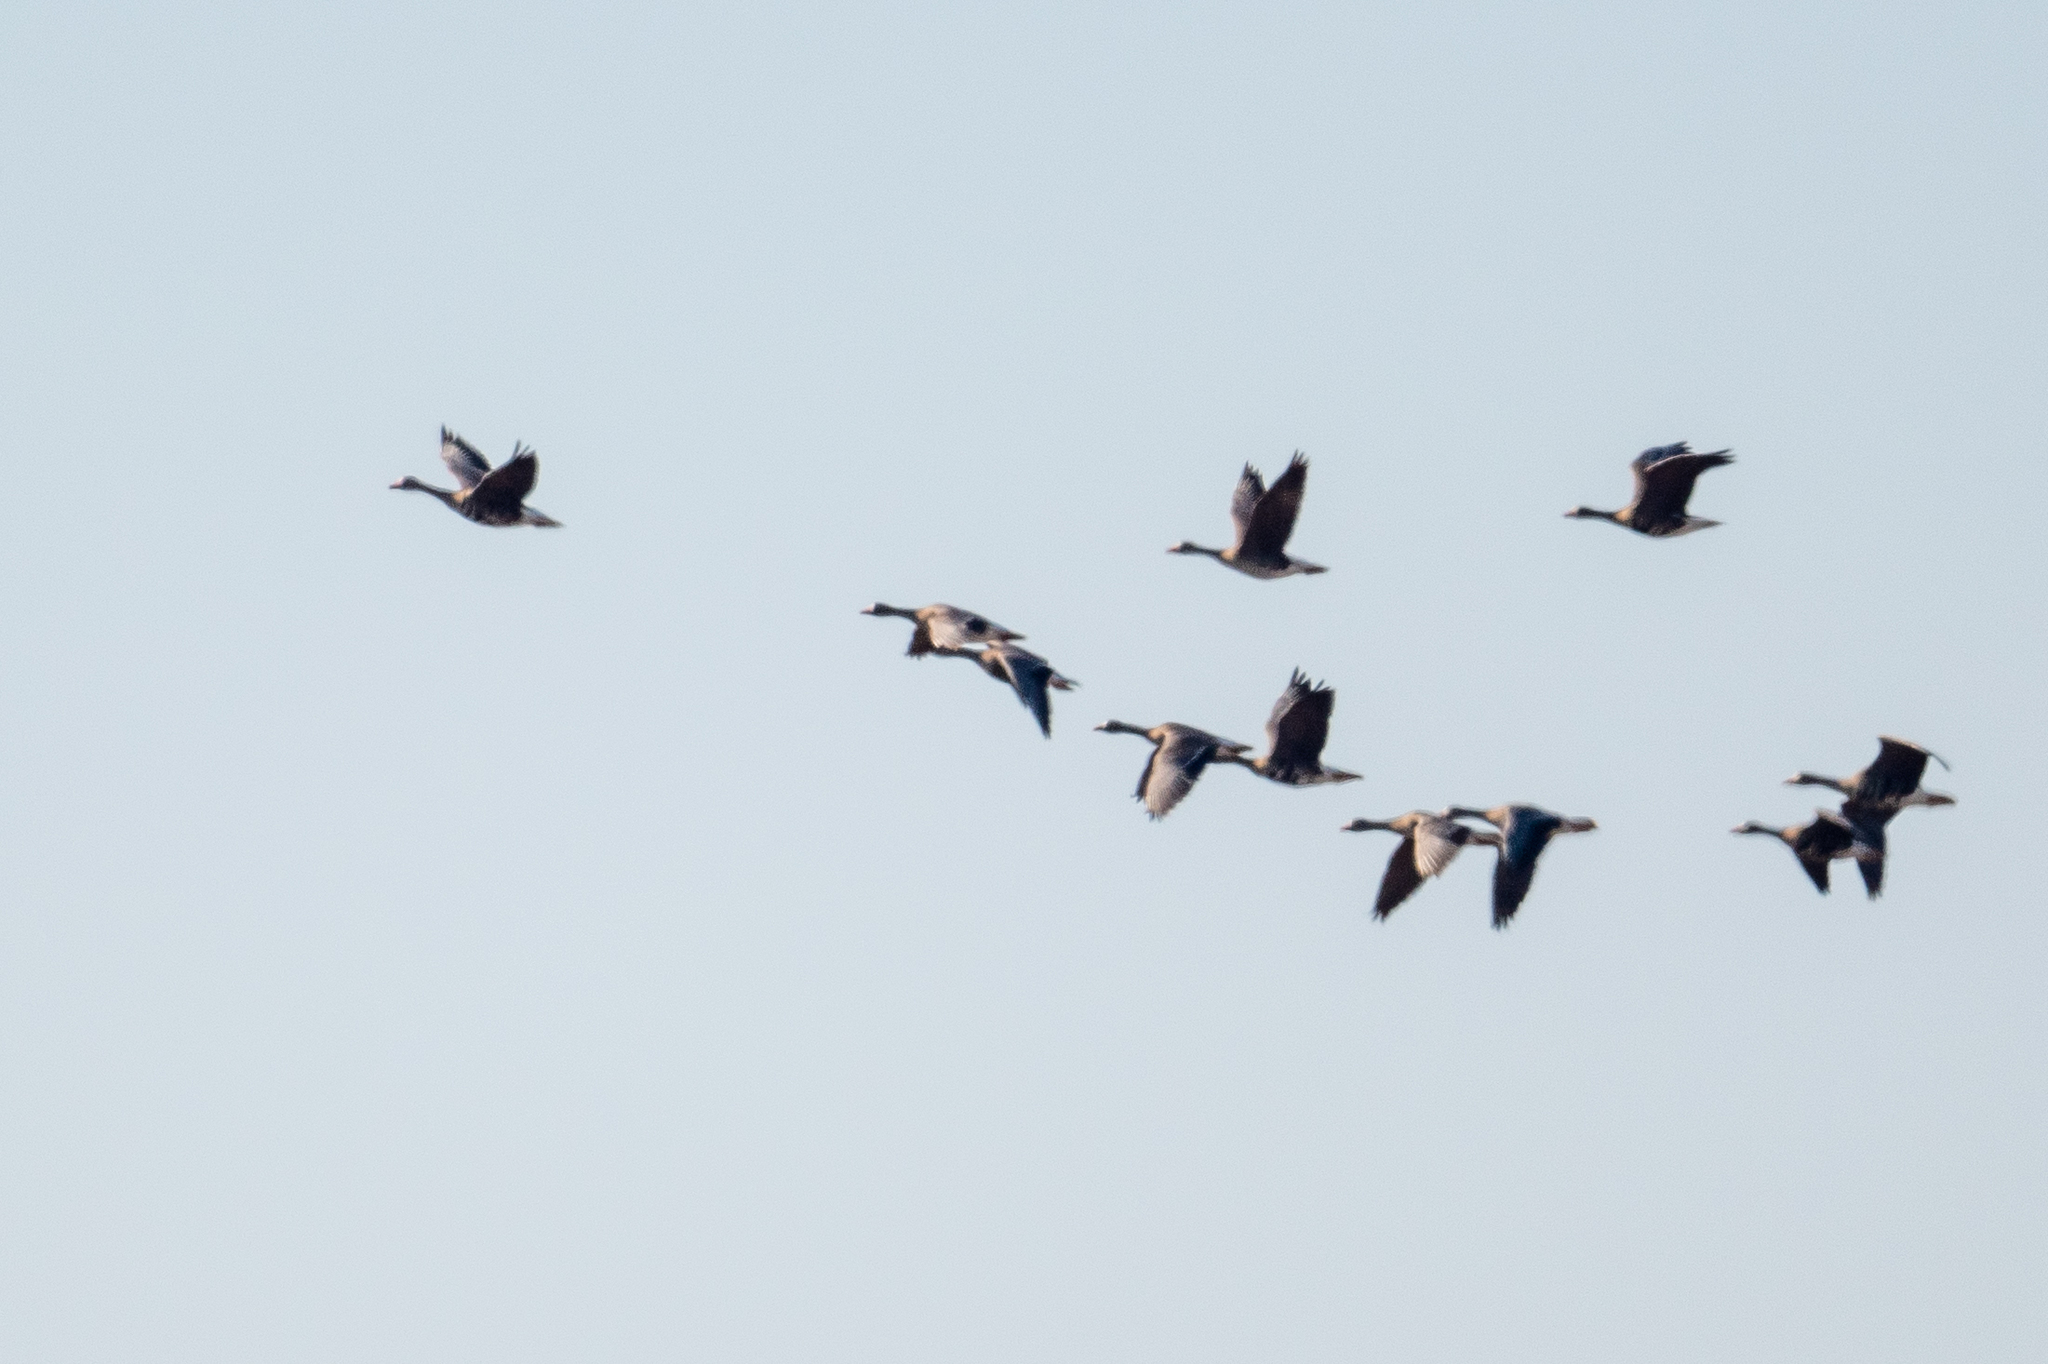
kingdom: Animalia
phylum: Chordata
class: Aves
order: Anseriformes
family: Anatidae
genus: Anser
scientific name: Anser albifrons
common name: Greater white-fronted goose
